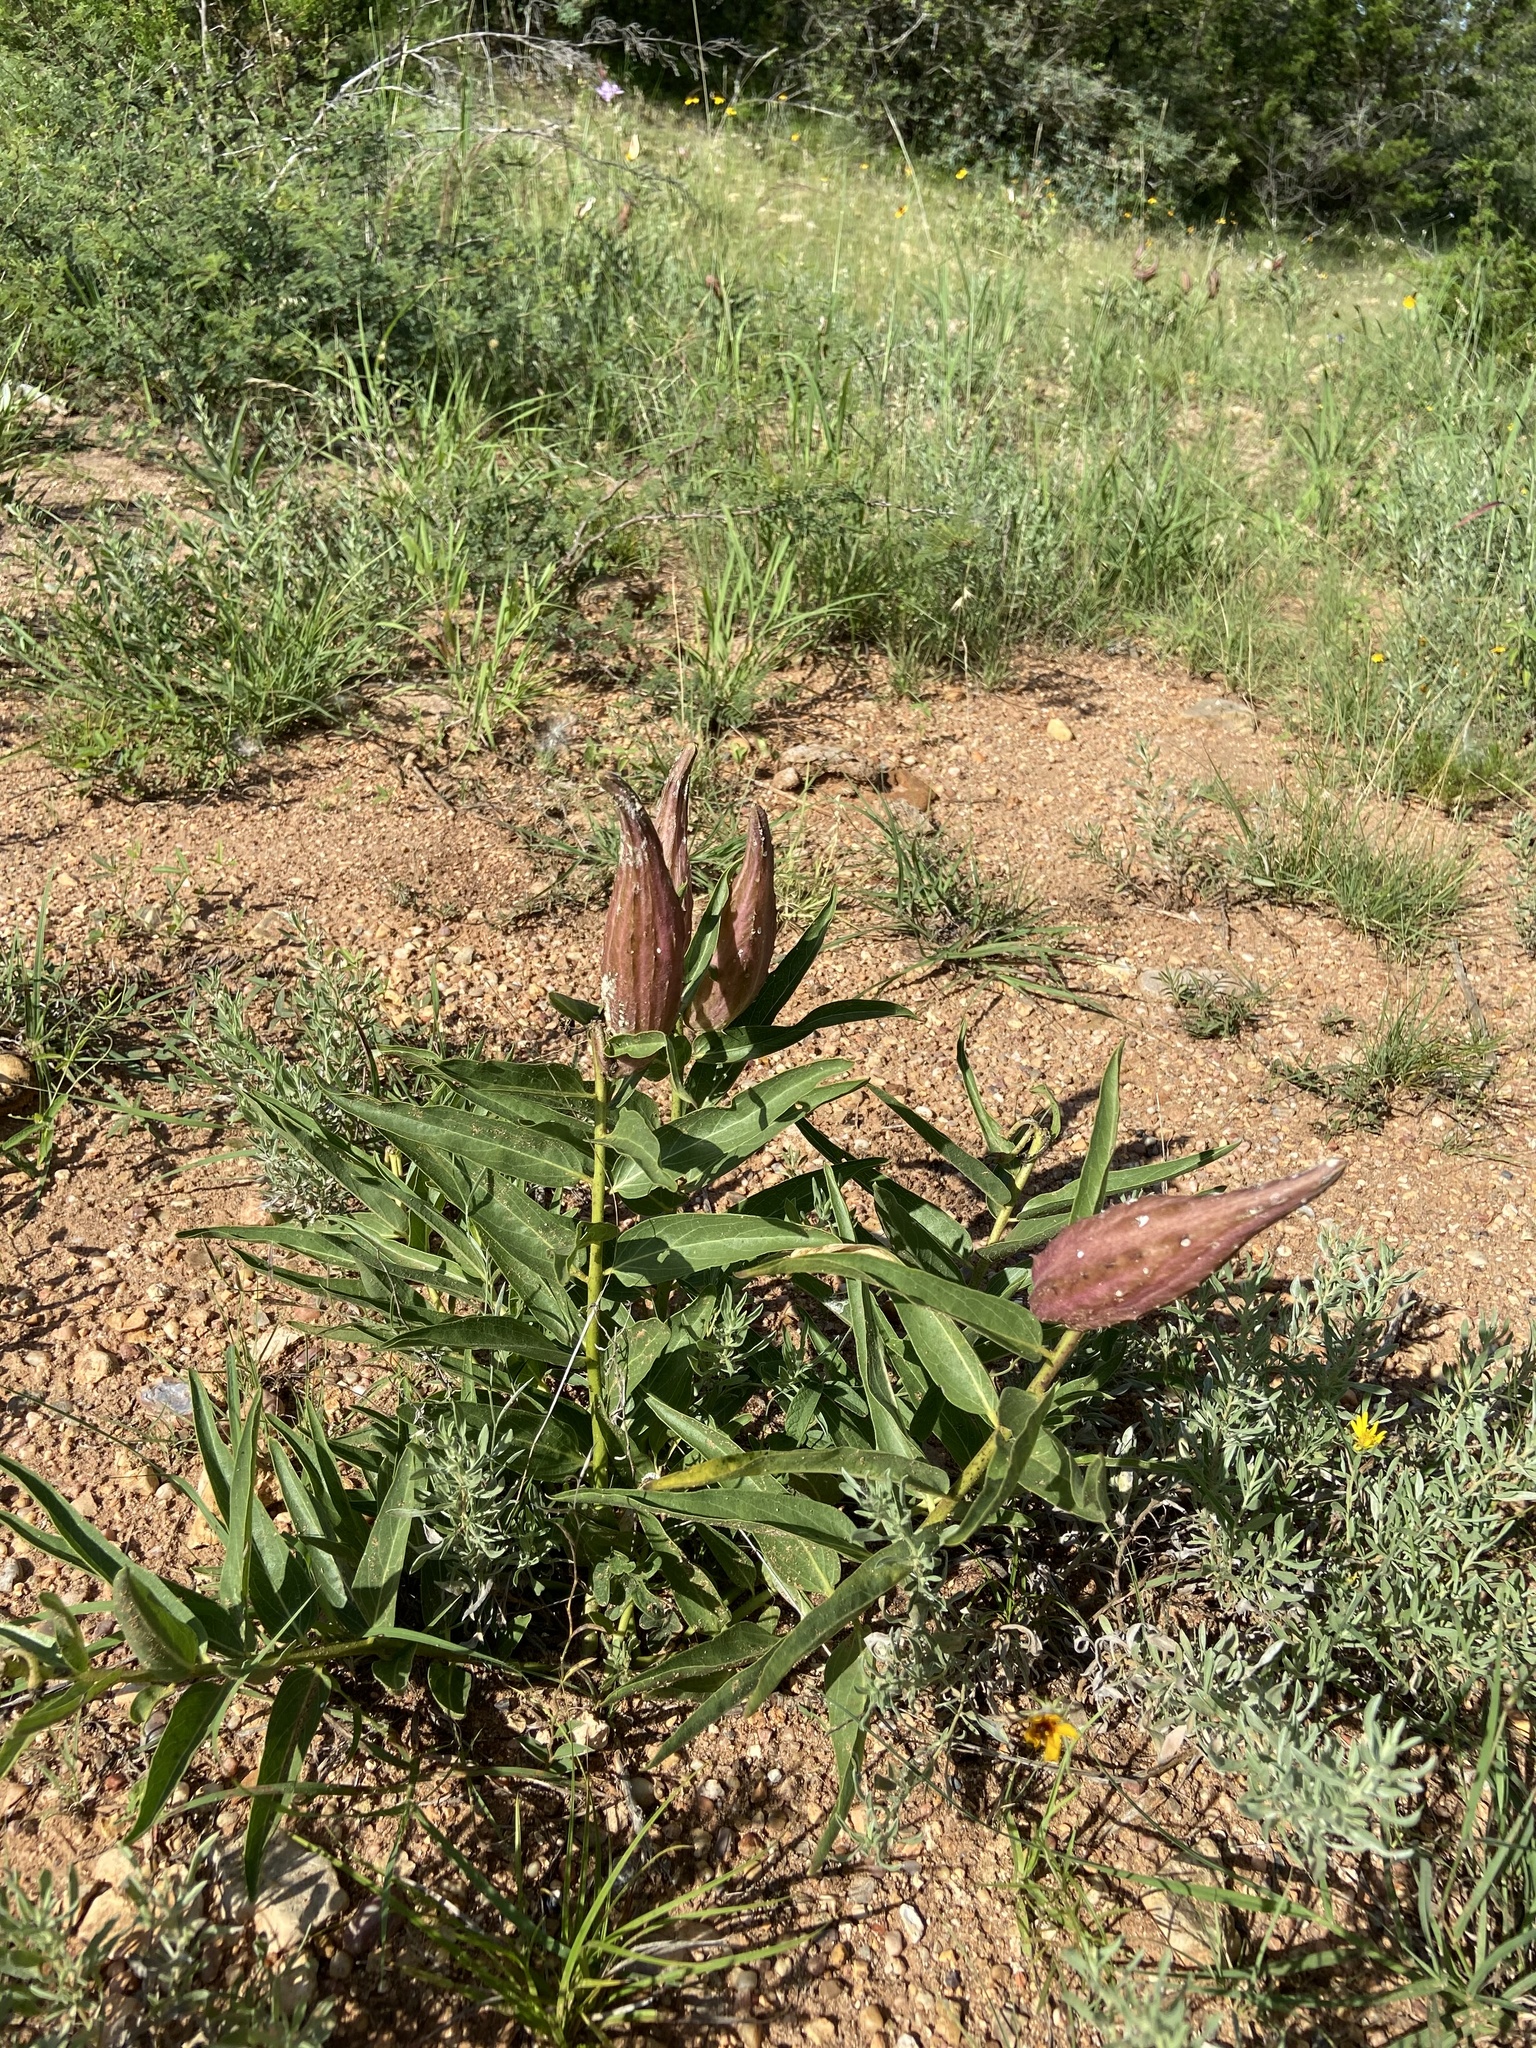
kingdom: Plantae
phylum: Tracheophyta
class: Magnoliopsida
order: Gentianales
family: Apocynaceae
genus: Asclepias
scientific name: Asclepias asperula
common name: Antelope horns
